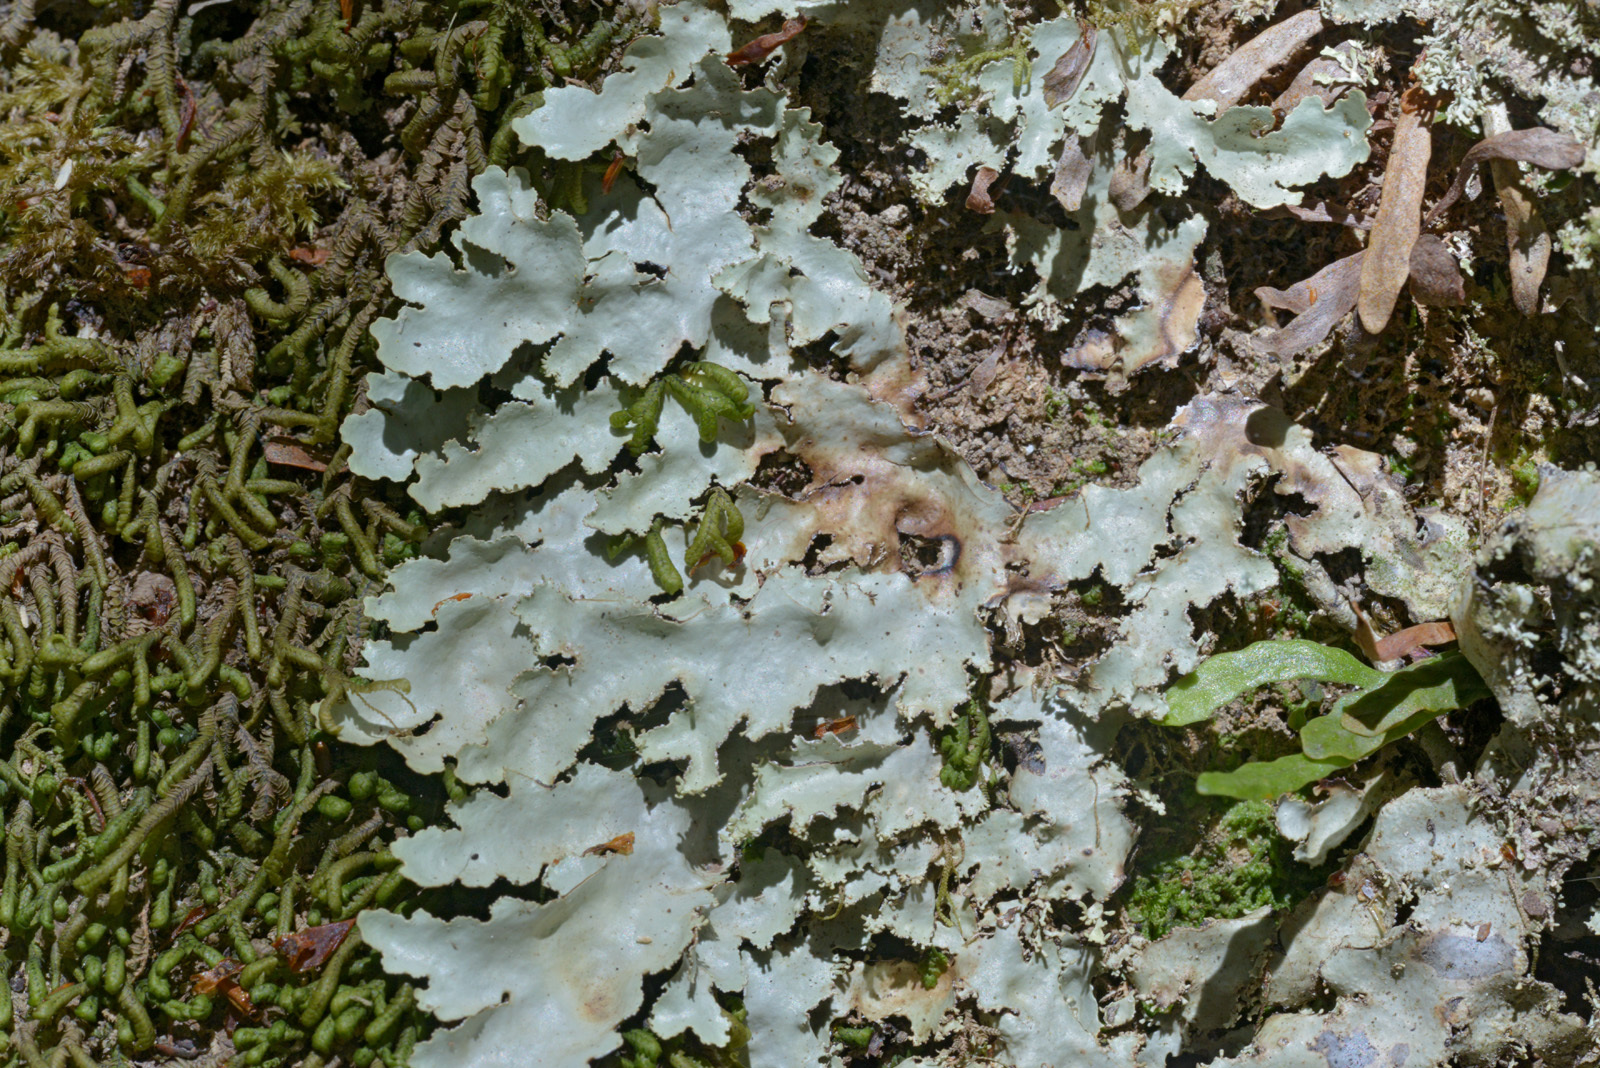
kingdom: Fungi
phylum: Ascomycota
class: Lecanoromycetes
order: Peltigerales
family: Lobariaceae
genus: Pseudocyphellaria
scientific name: Pseudocyphellaria glabra
